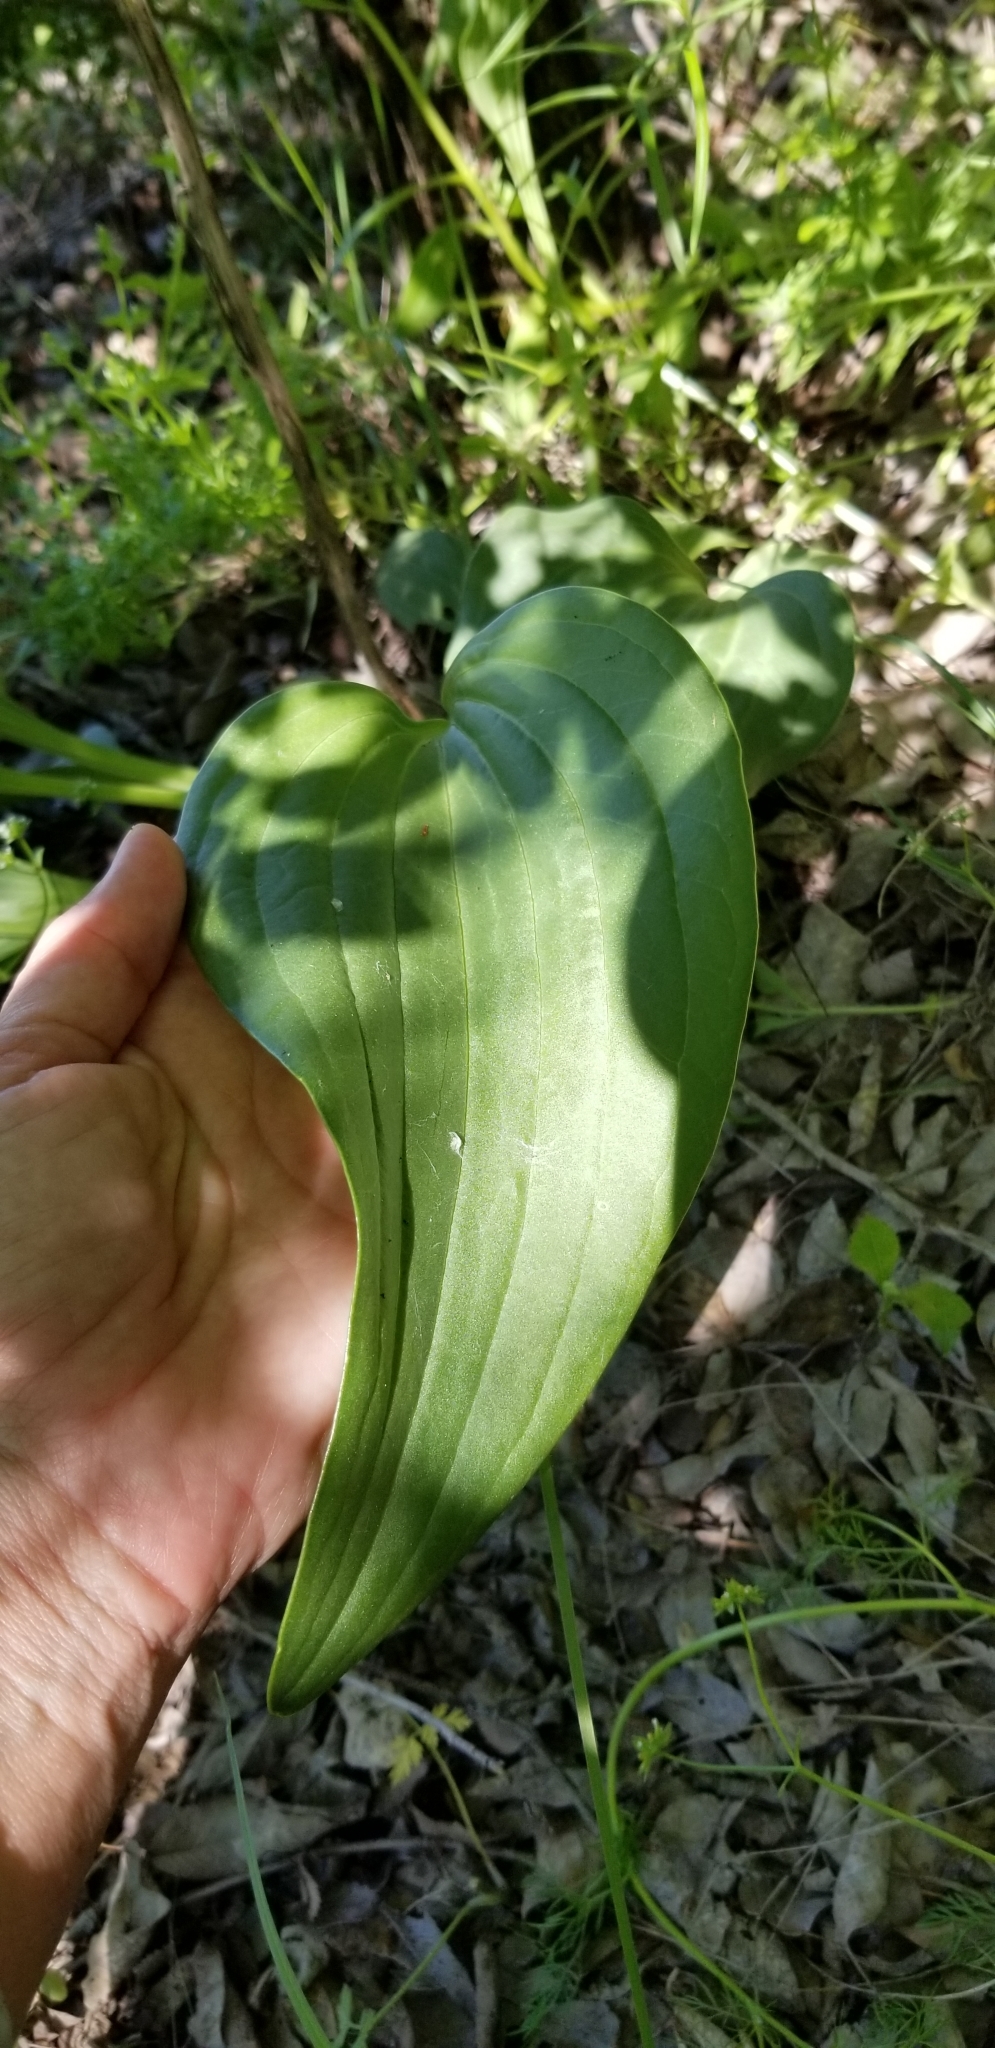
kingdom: Plantae
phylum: Tracheophyta
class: Magnoliopsida
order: Asterales
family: Asteraceae
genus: Arnoglossum
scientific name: Arnoglossum plantagineum
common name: Groove-stemmed indian-plantain
